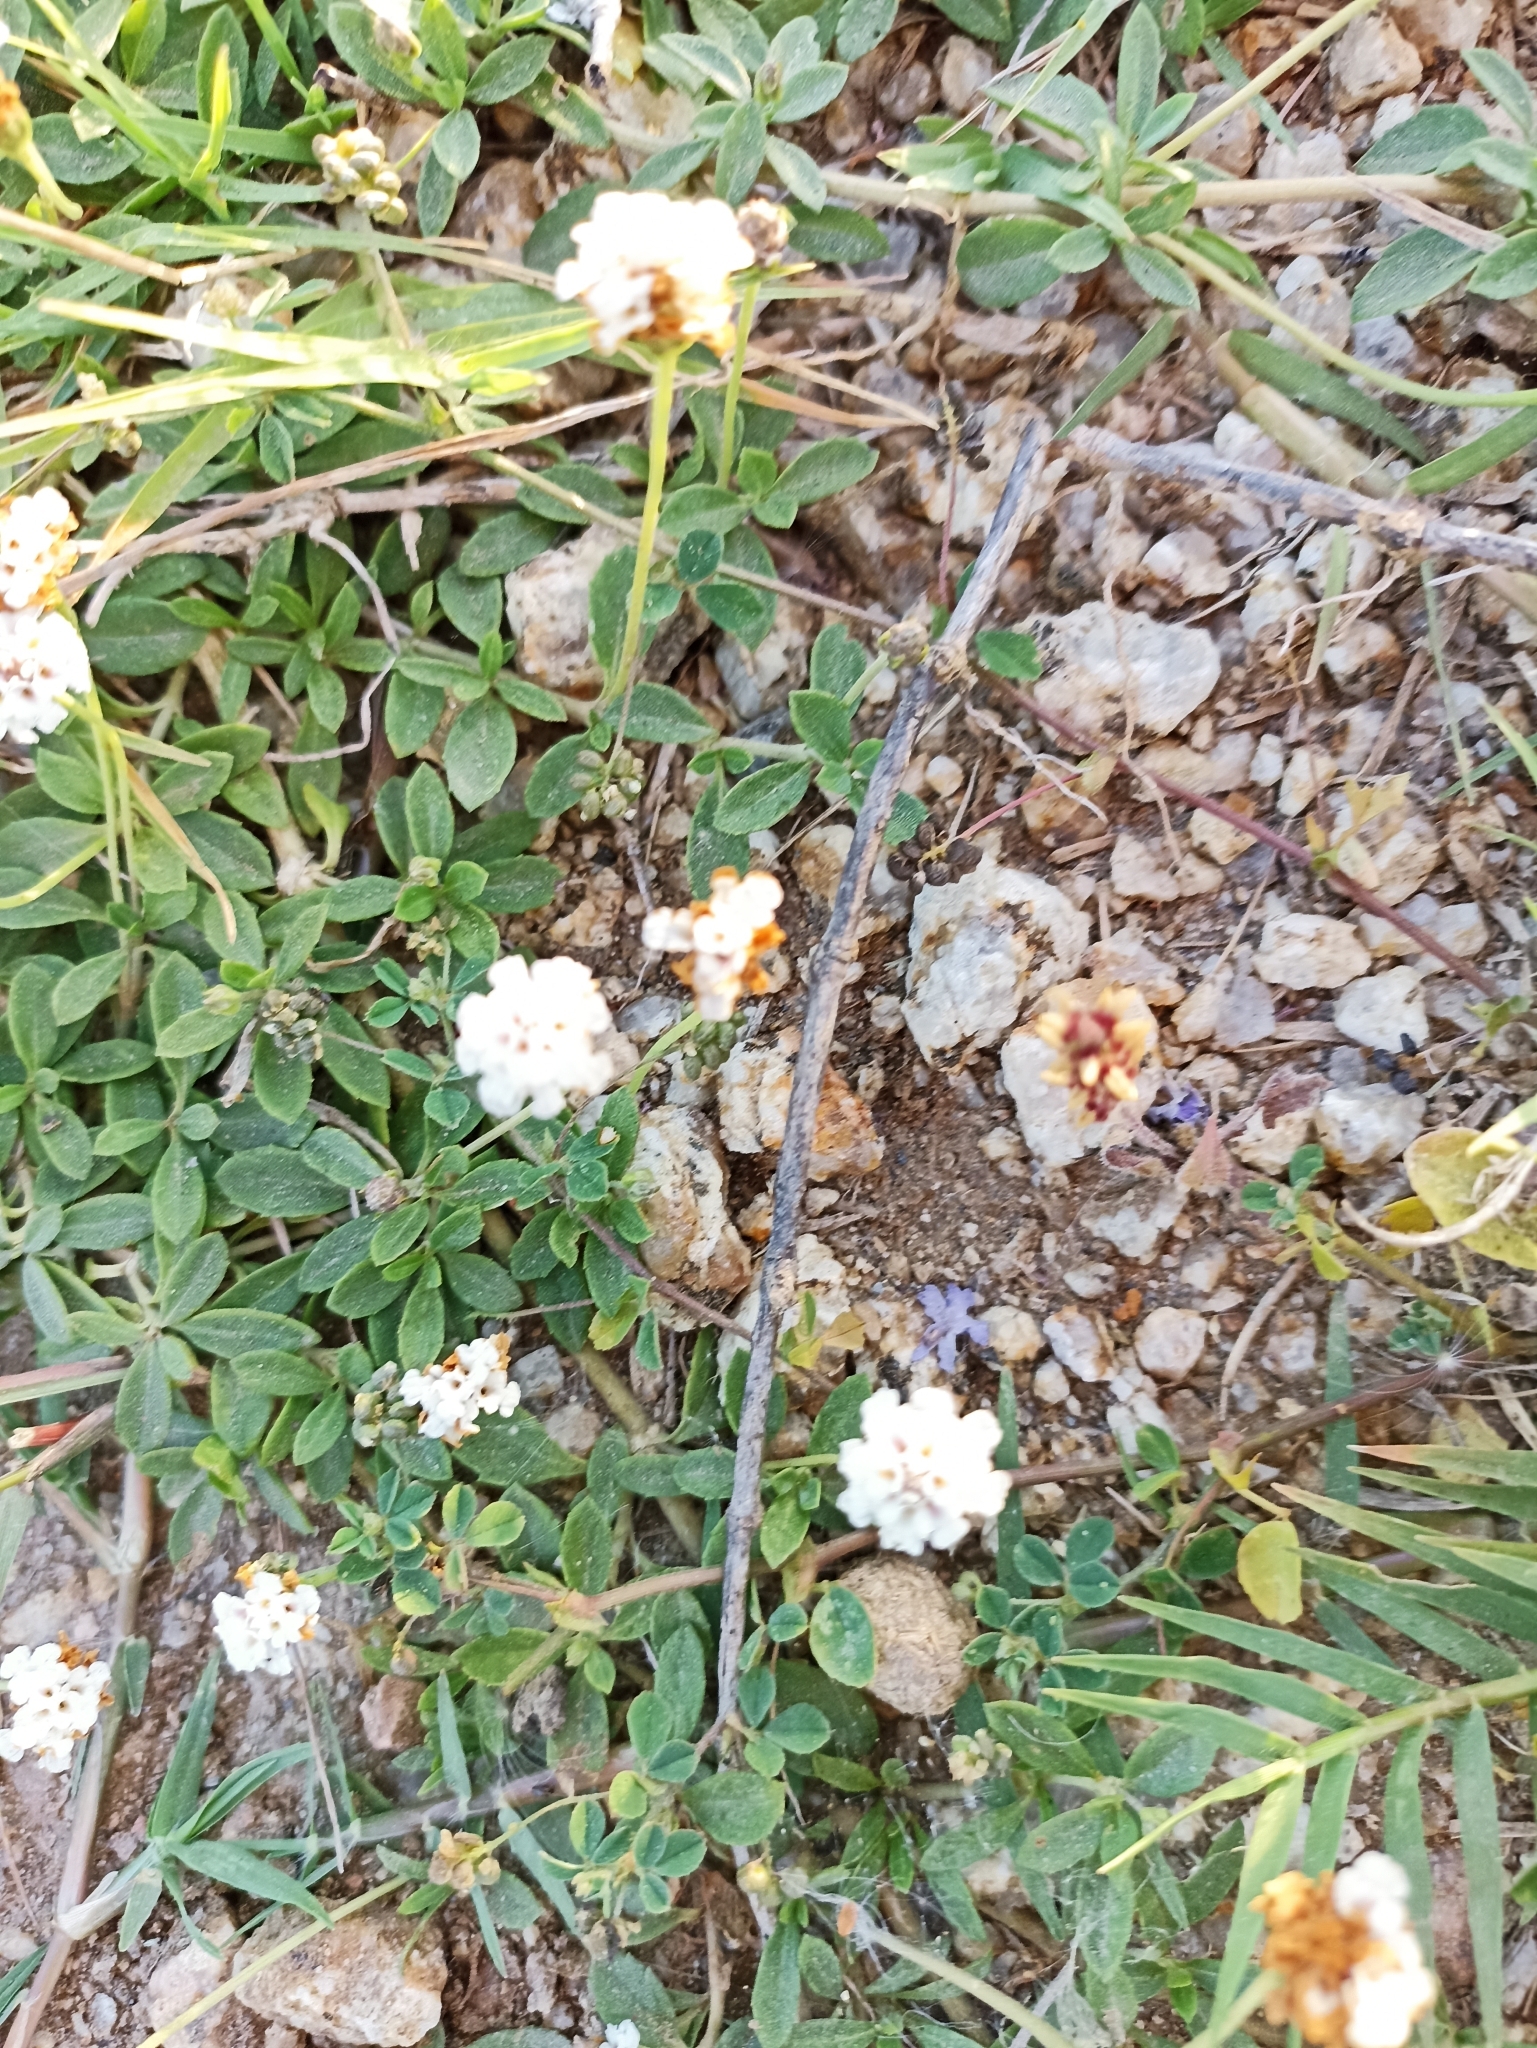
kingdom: Plantae
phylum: Tracheophyta
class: Magnoliopsida
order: Lamiales
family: Verbenaceae
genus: Phyla
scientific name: Phyla nodiflora
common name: Frogfruit
